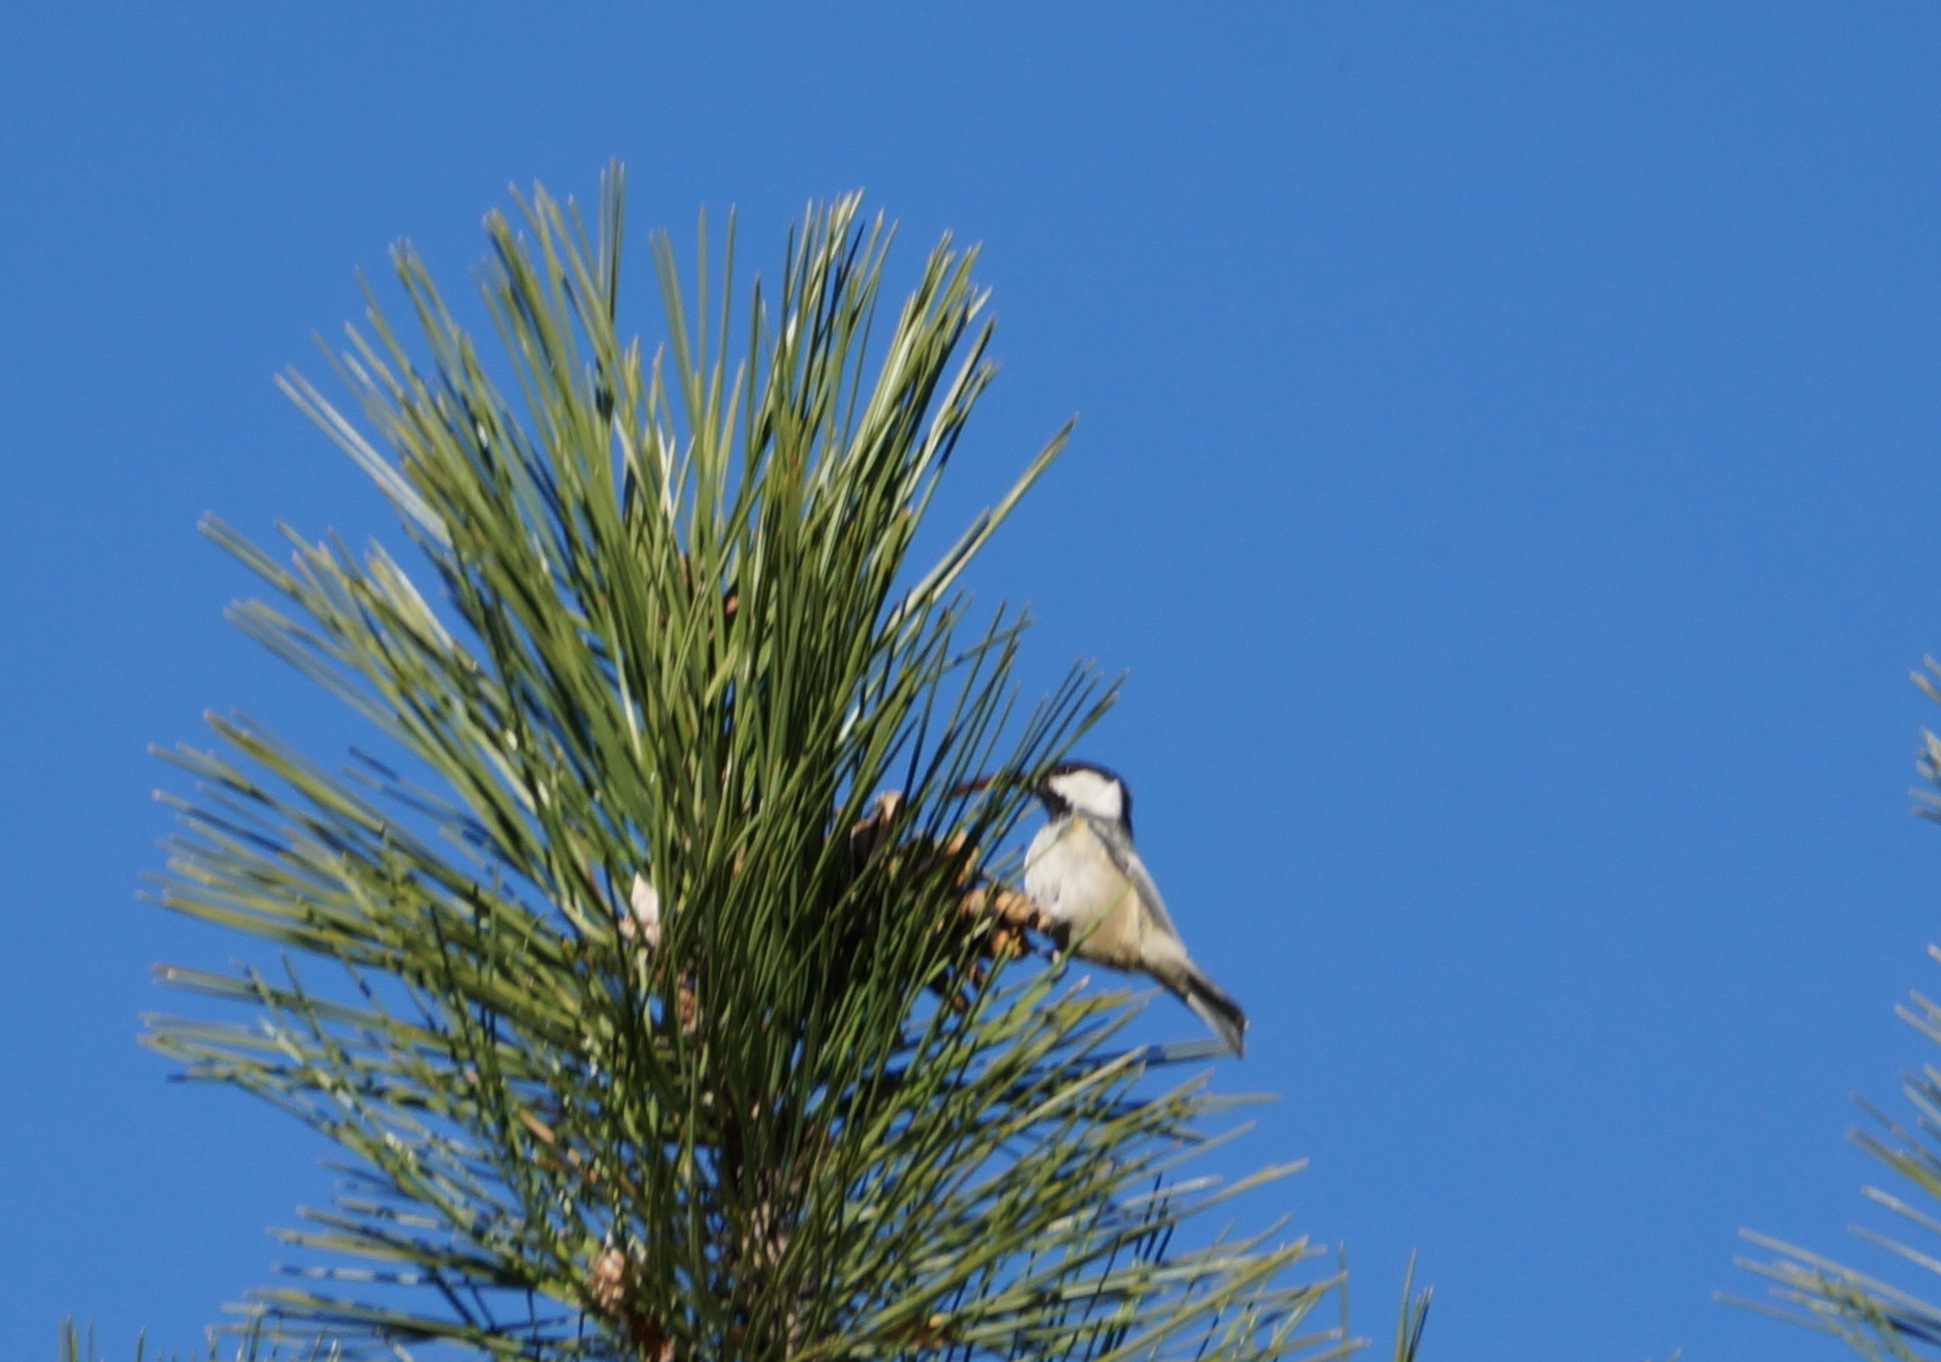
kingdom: Animalia
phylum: Chordata
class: Aves
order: Passeriformes
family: Paridae
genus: Periparus
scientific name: Periparus ater
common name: Coal tit
